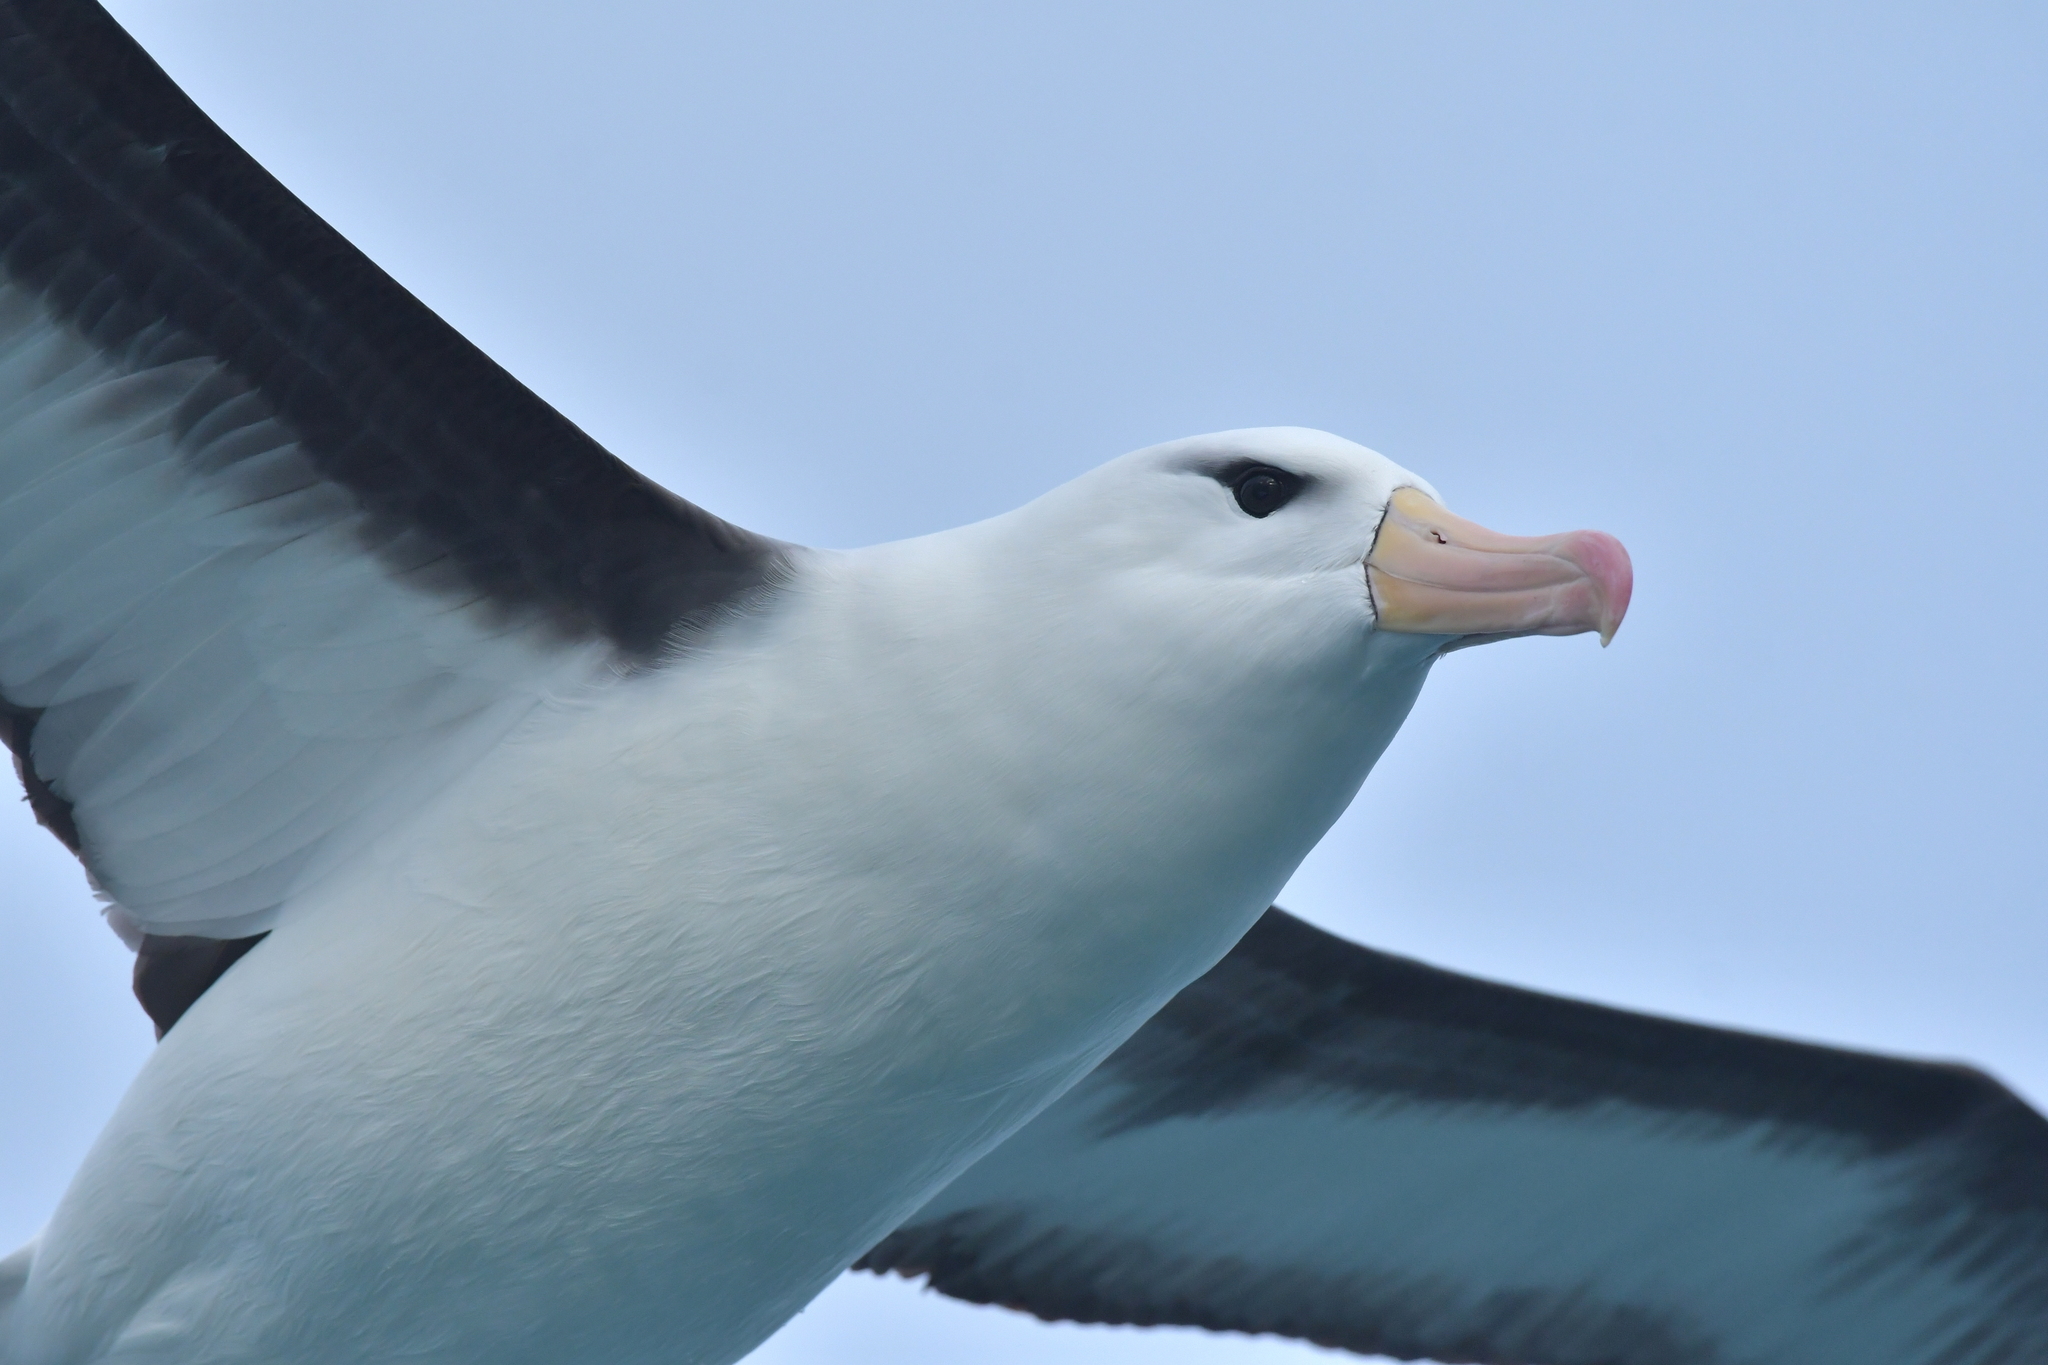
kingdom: Animalia
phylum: Chordata
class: Aves
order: Procellariiformes
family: Diomedeidae
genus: Thalassarche
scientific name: Thalassarche melanophris
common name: Black-browed albatross
